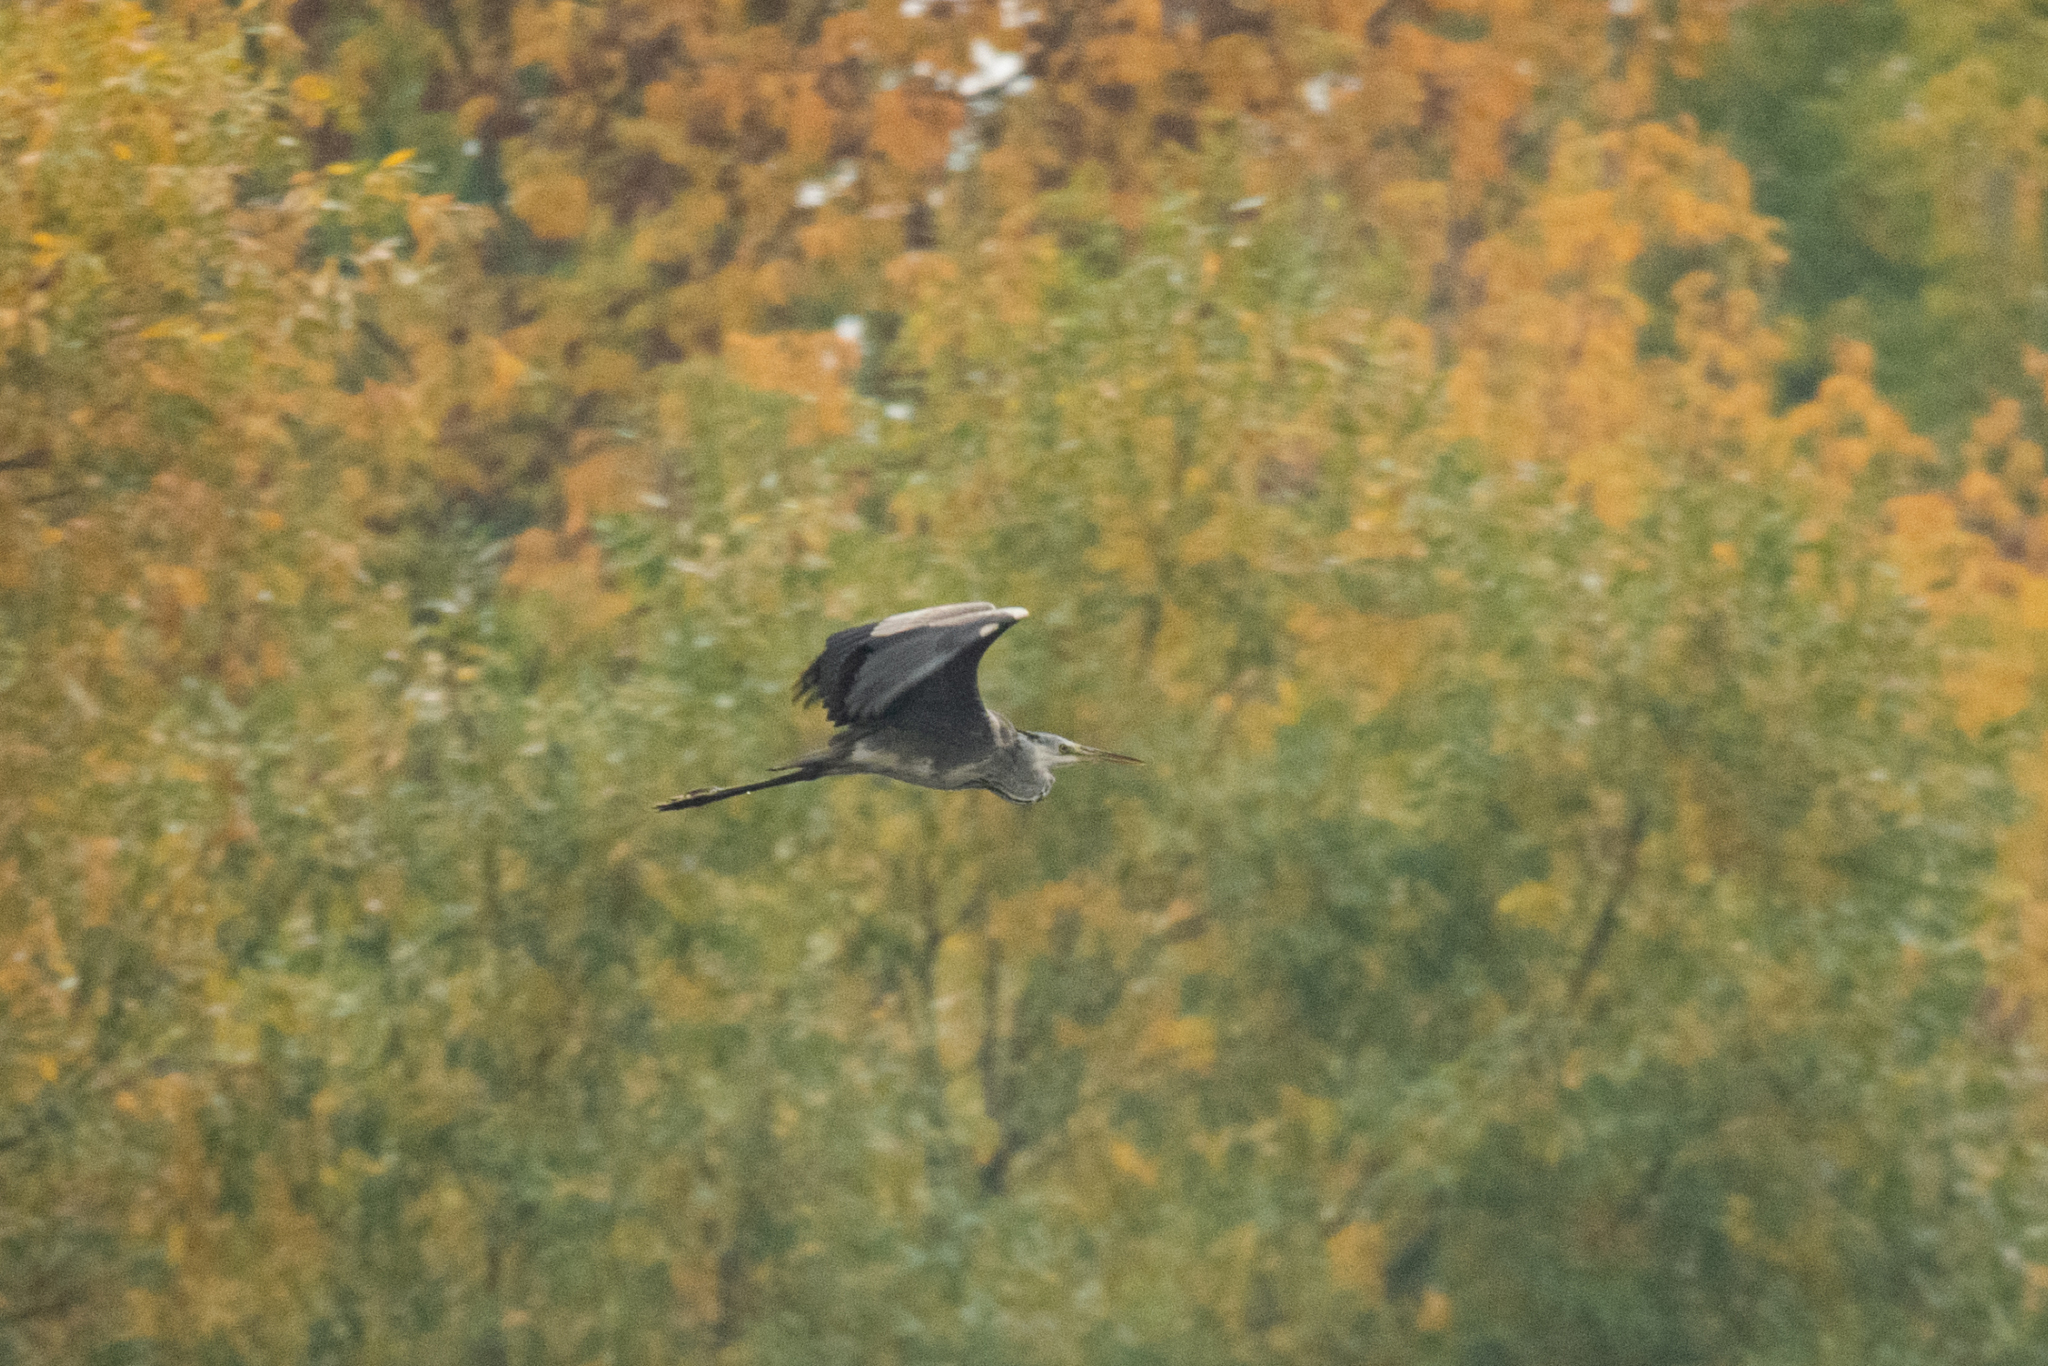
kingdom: Animalia
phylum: Chordata
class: Aves
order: Pelecaniformes
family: Ardeidae
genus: Ardea
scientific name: Ardea cinerea
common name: Grey heron
